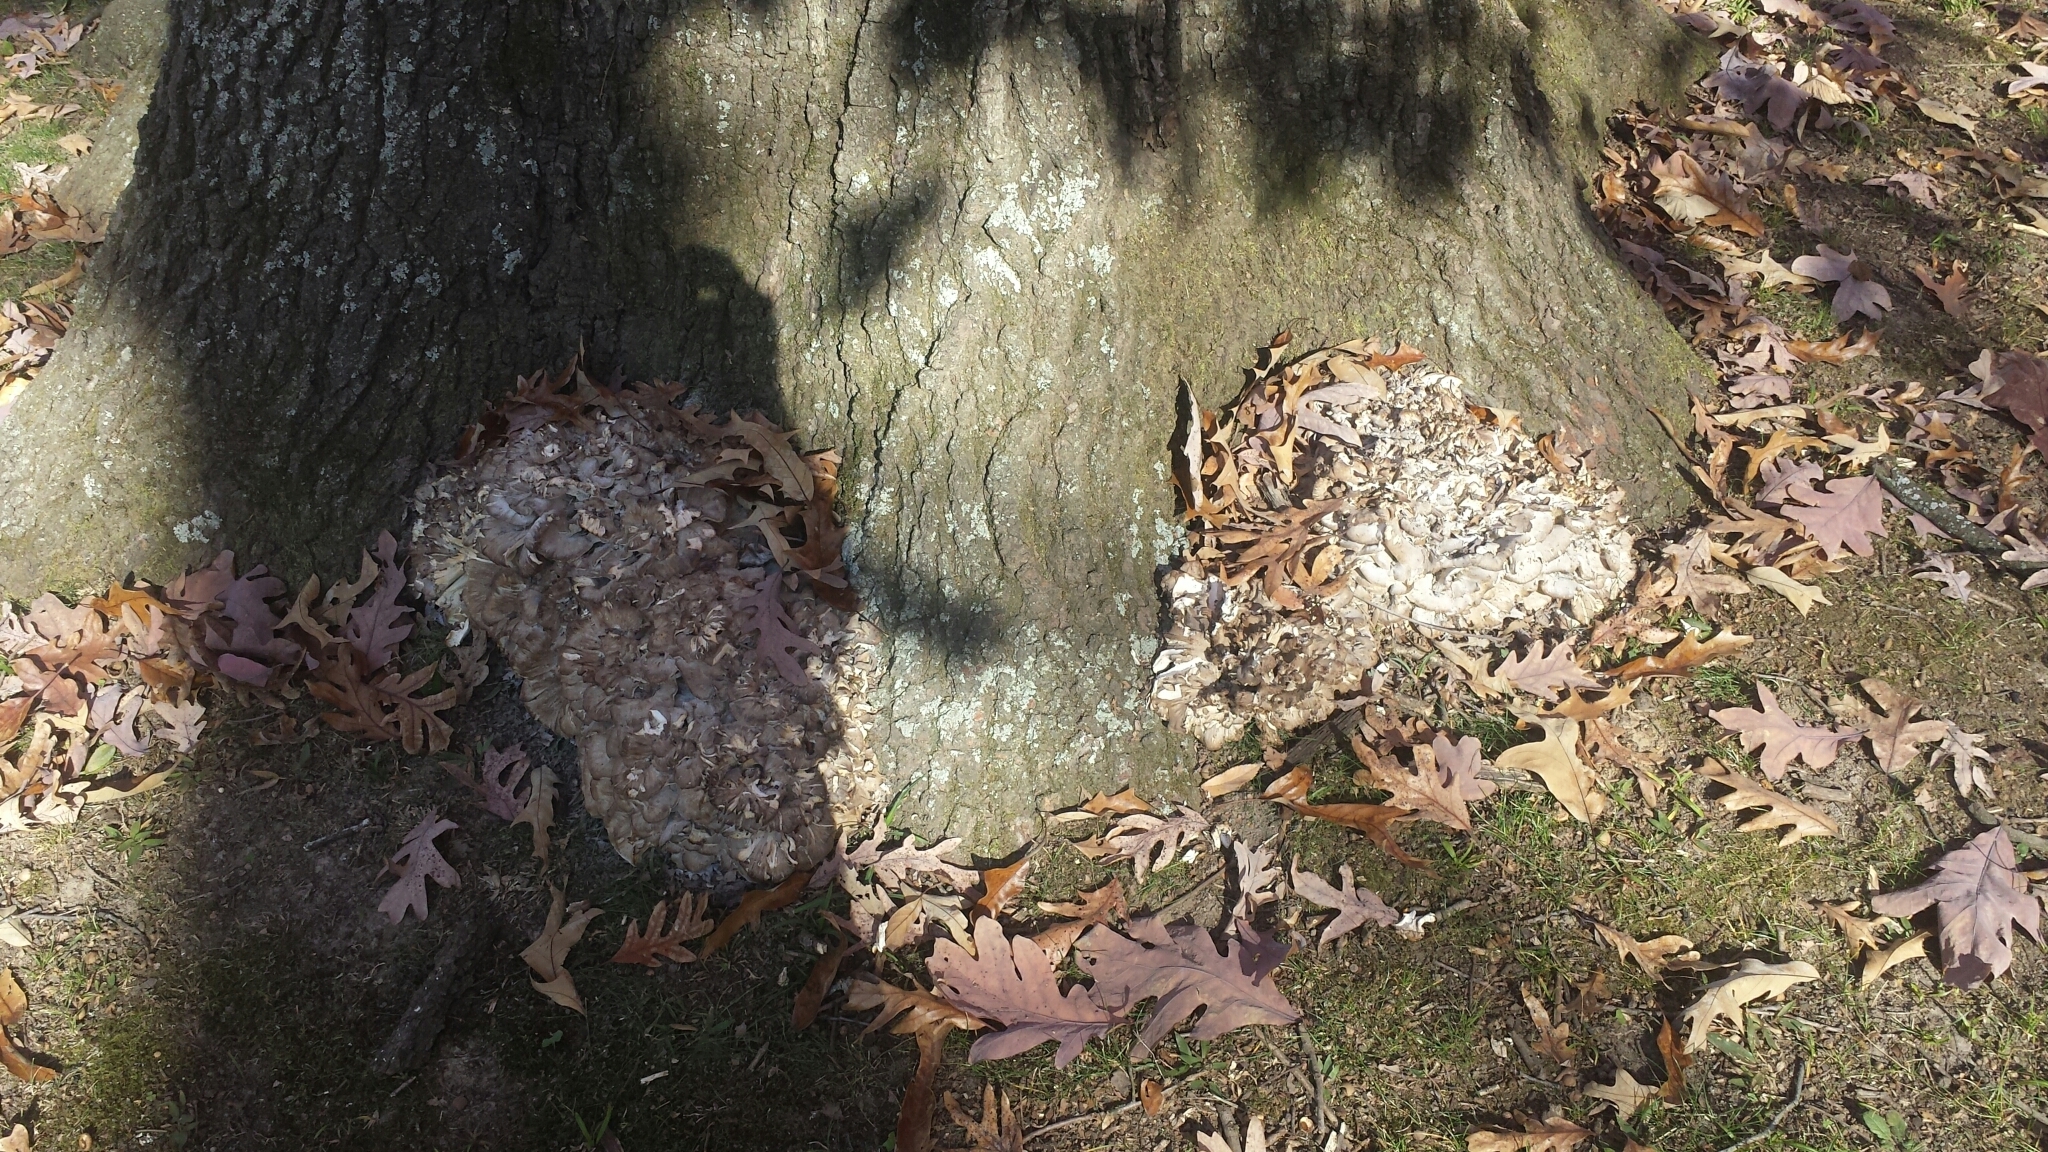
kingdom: Fungi
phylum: Basidiomycota
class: Agaricomycetes
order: Polyporales
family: Grifolaceae
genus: Grifola
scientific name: Grifola frondosa
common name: Hen of the woods
